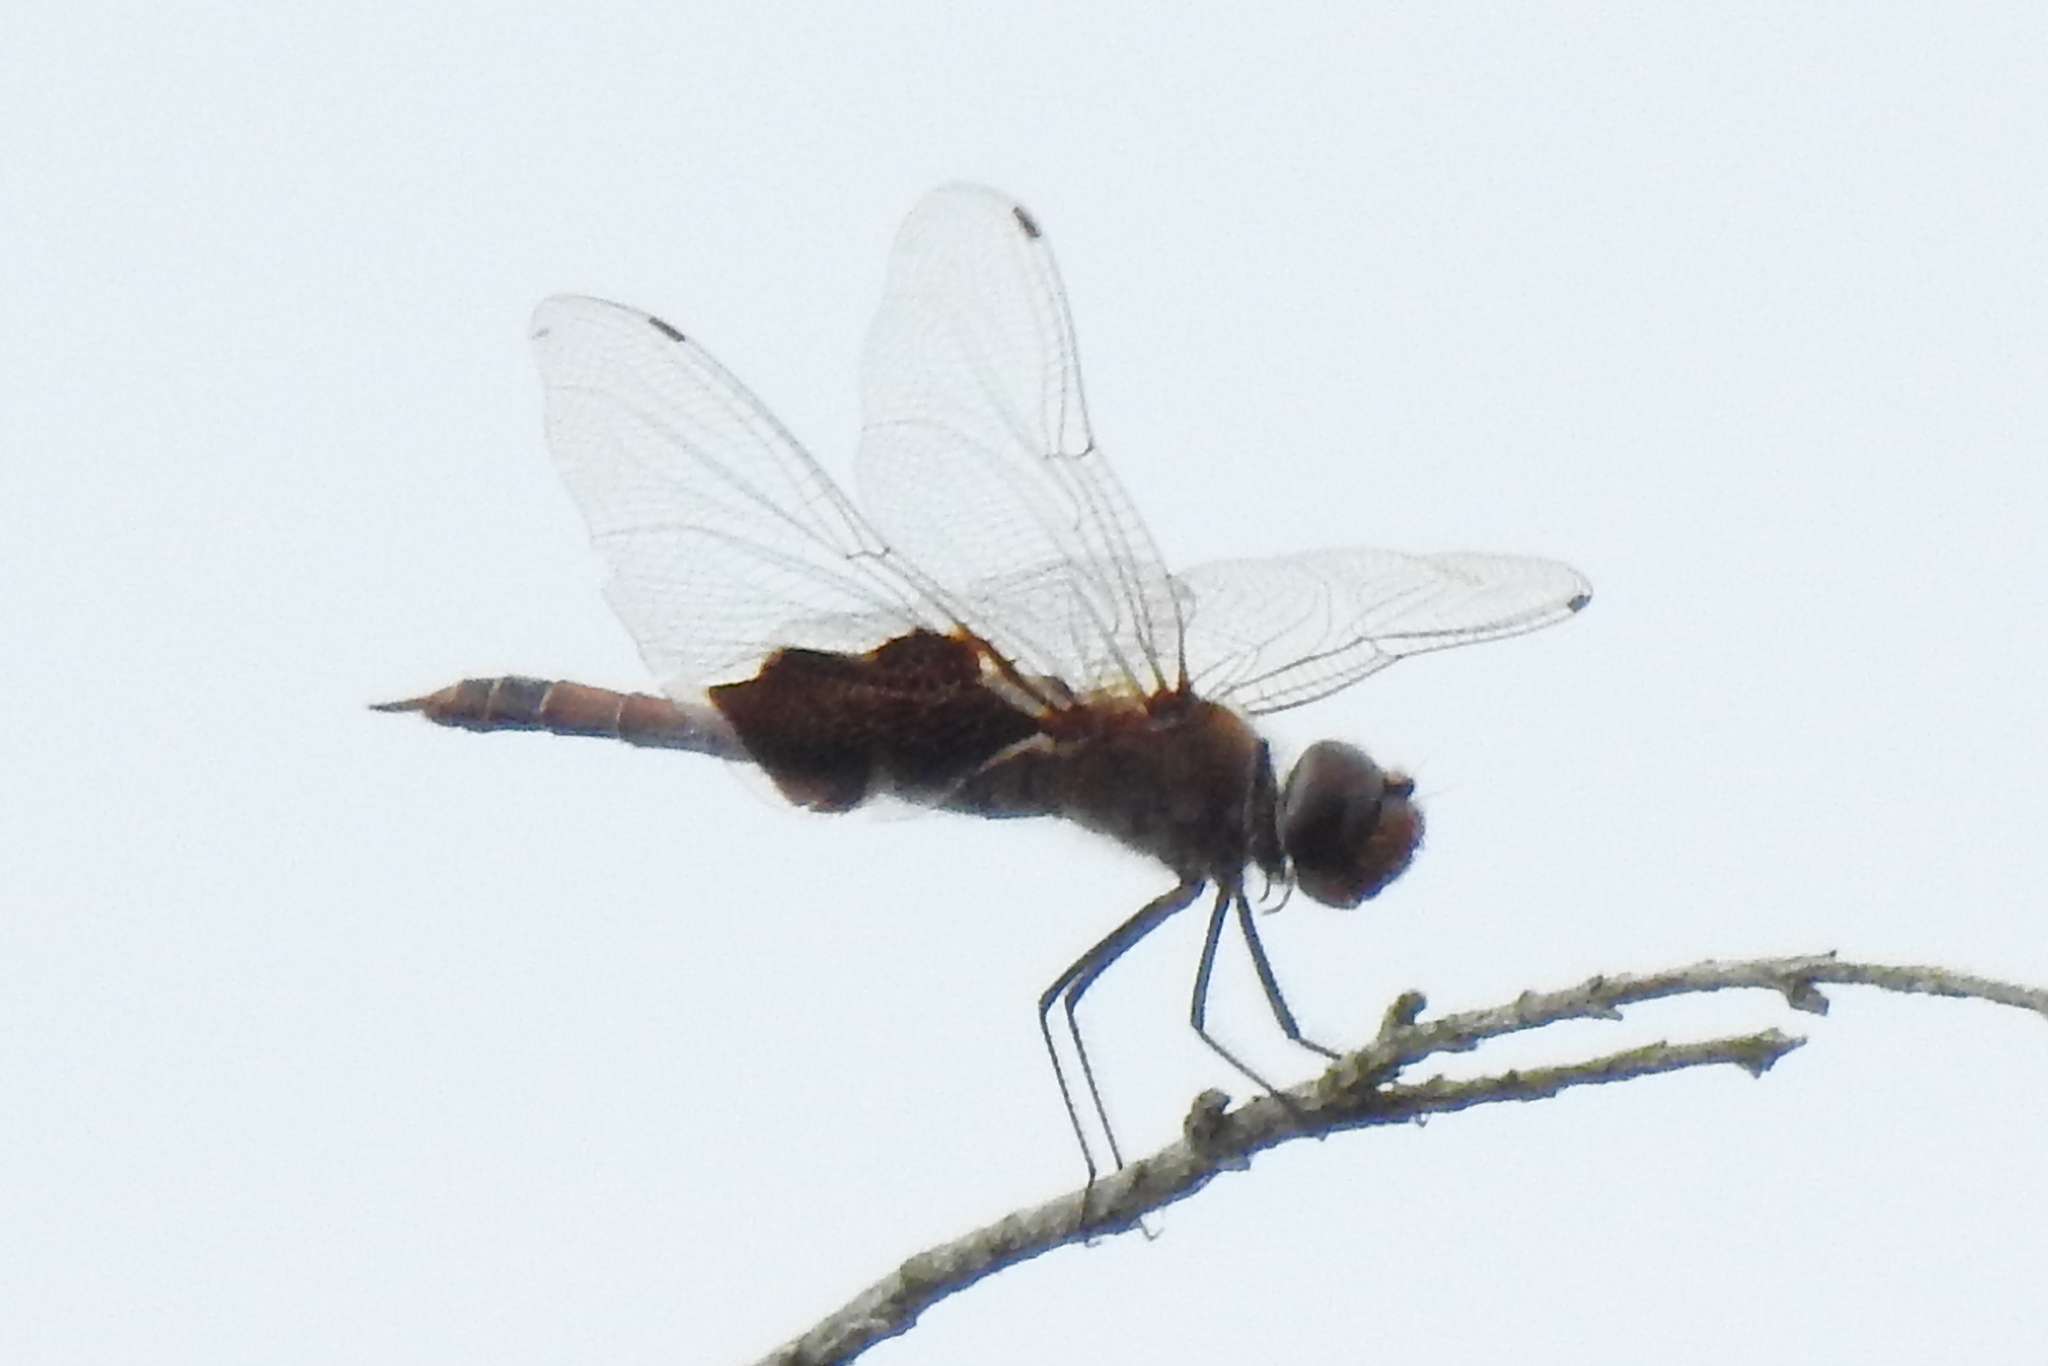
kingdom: Animalia
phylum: Arthropoda
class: Insecta
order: Odonata
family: Libellulidae
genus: Tramea
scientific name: Tramea carolina
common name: Carolina saddlebags
